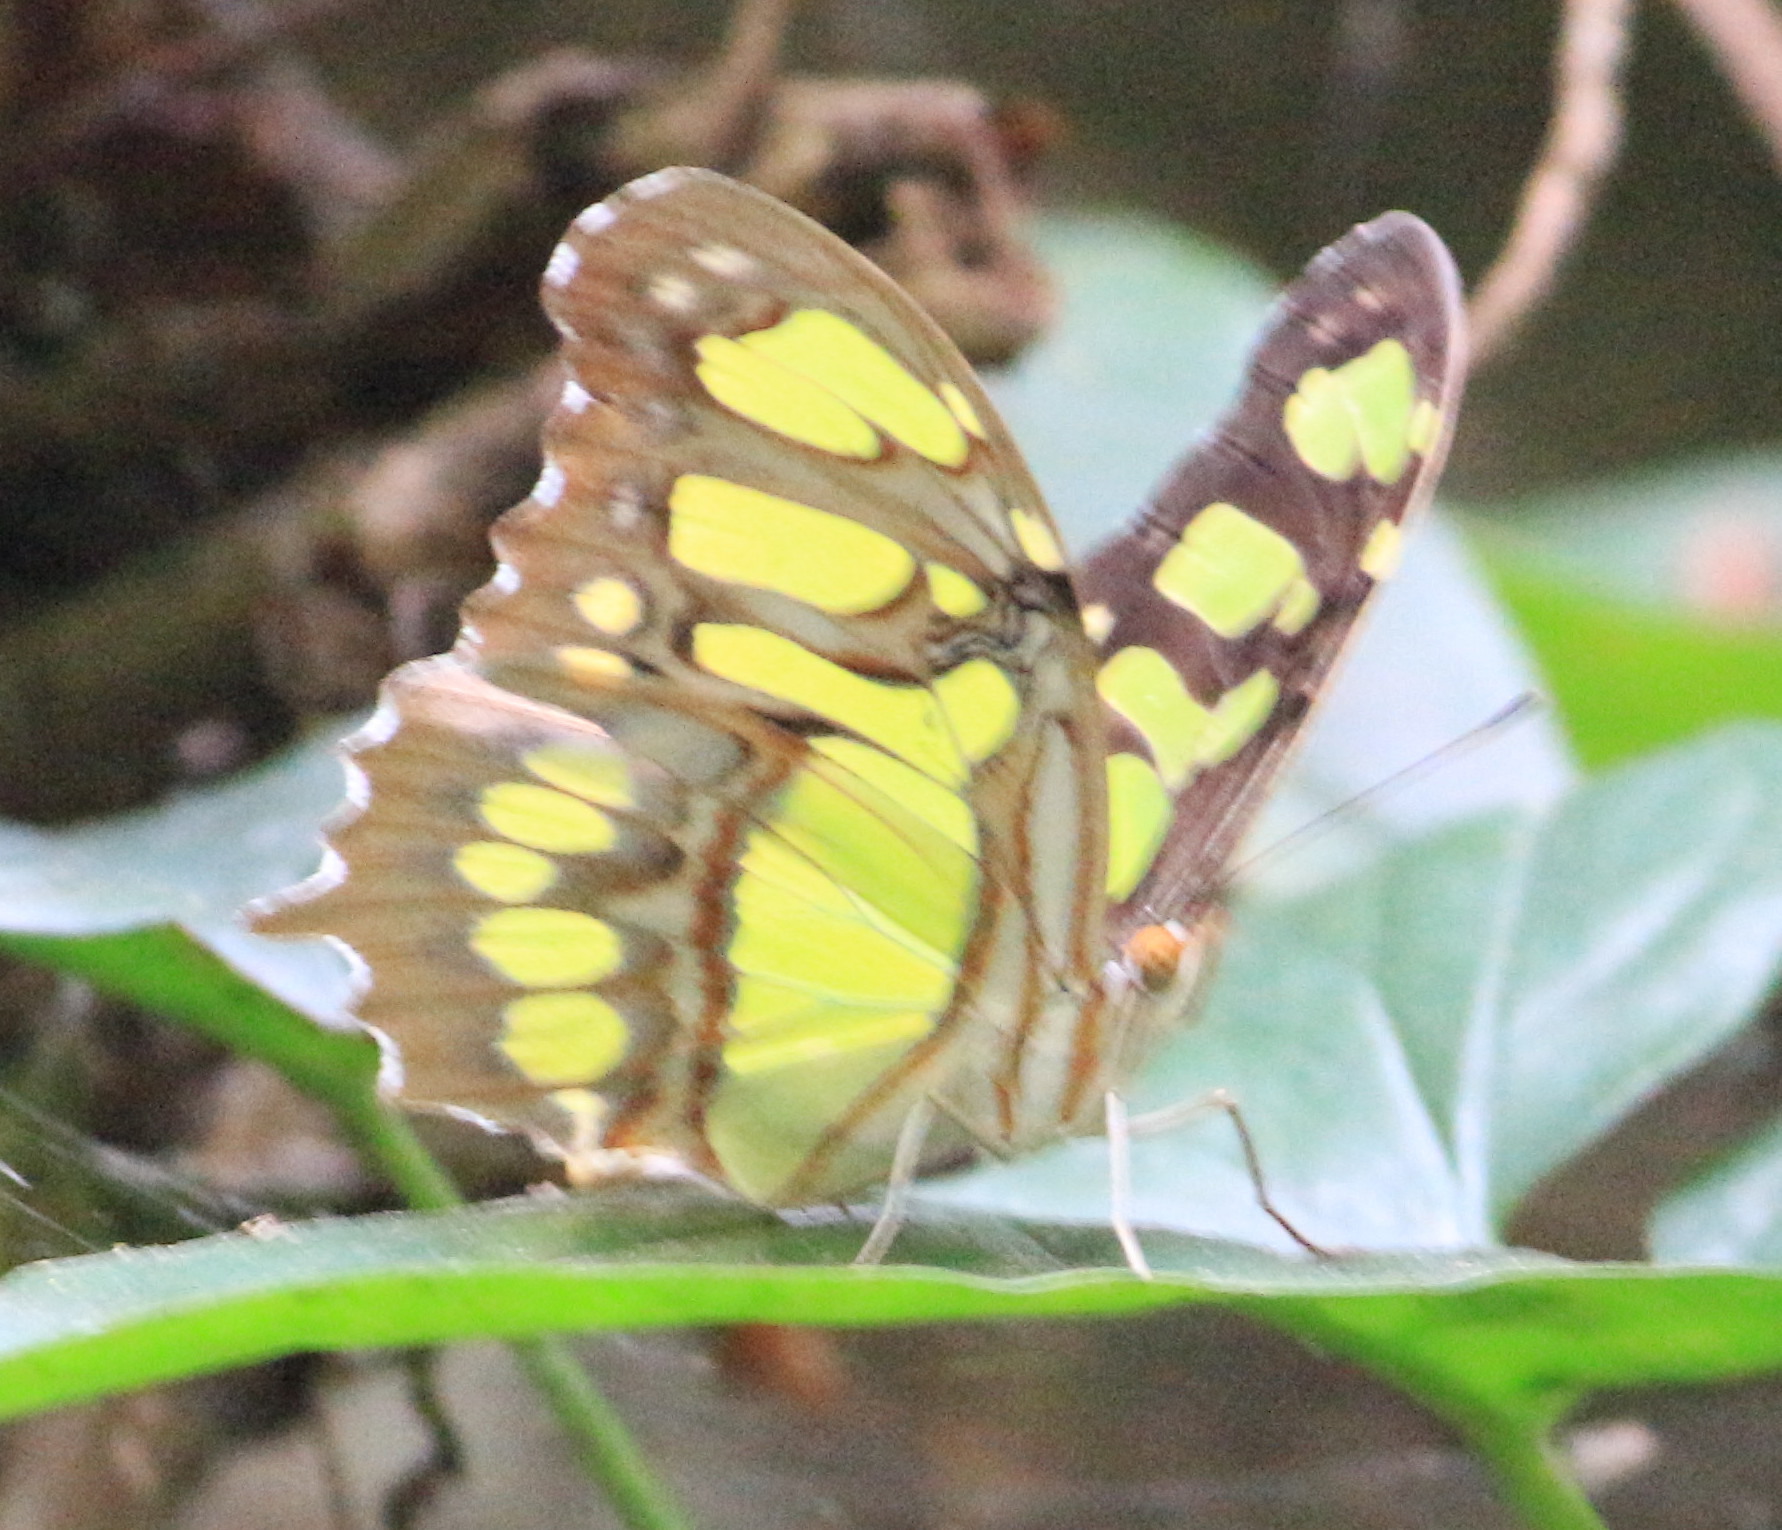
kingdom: Animalia
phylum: Arthropoda
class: Insecta
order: Lepidoptera
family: Nymphalidae
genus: Siproeta
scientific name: Siproeta stelenes
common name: Malachite
